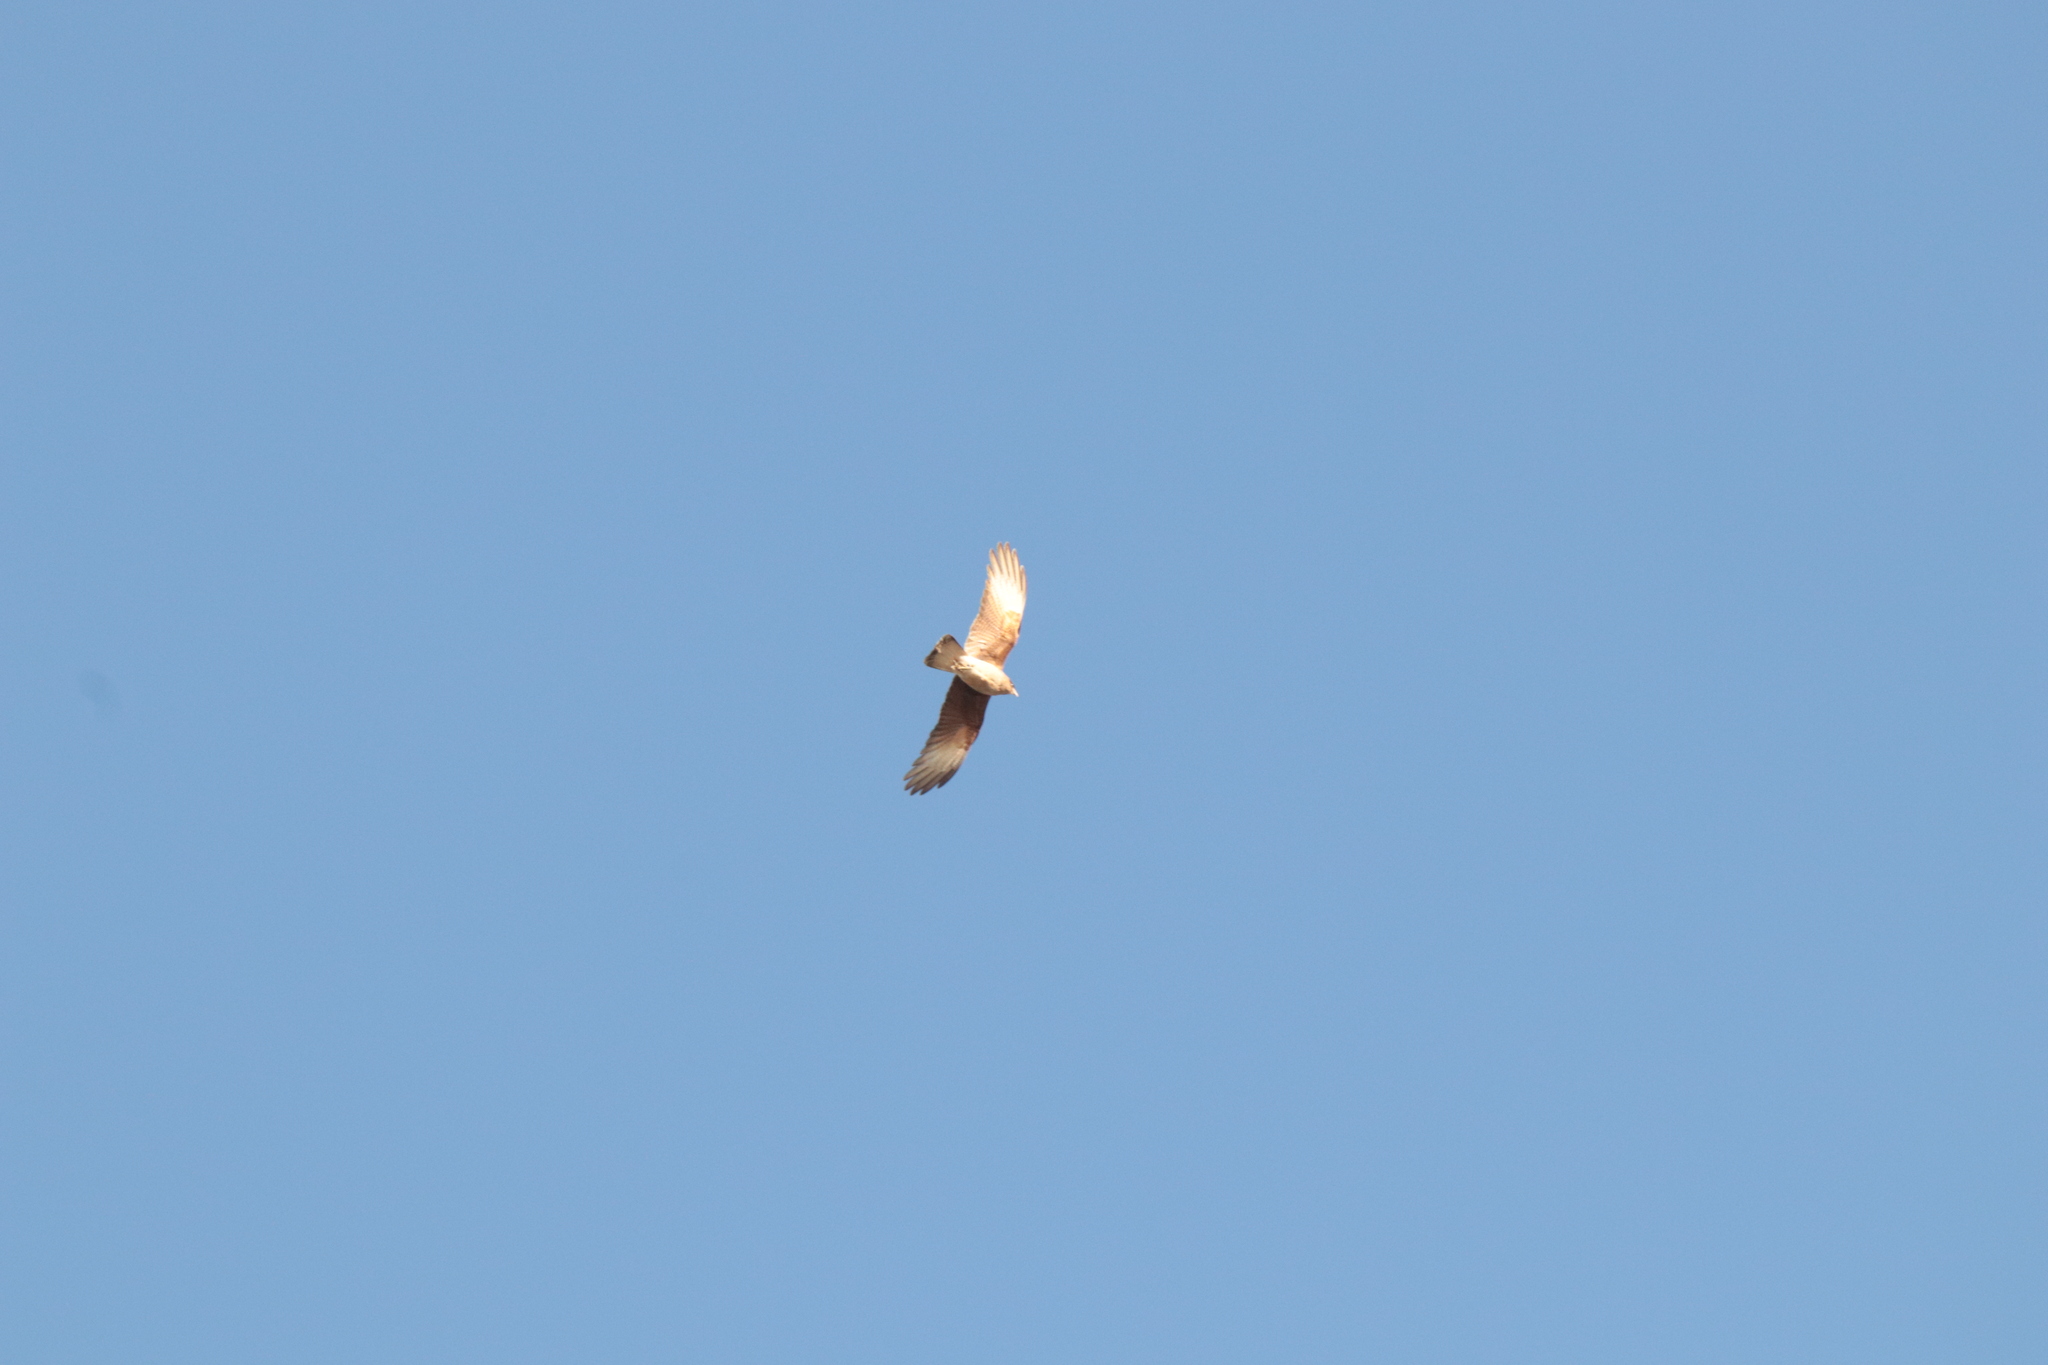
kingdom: Animalia
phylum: Chordata
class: Aves
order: Falconiformes
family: Falconidae
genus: Daptrius
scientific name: Daptrius
